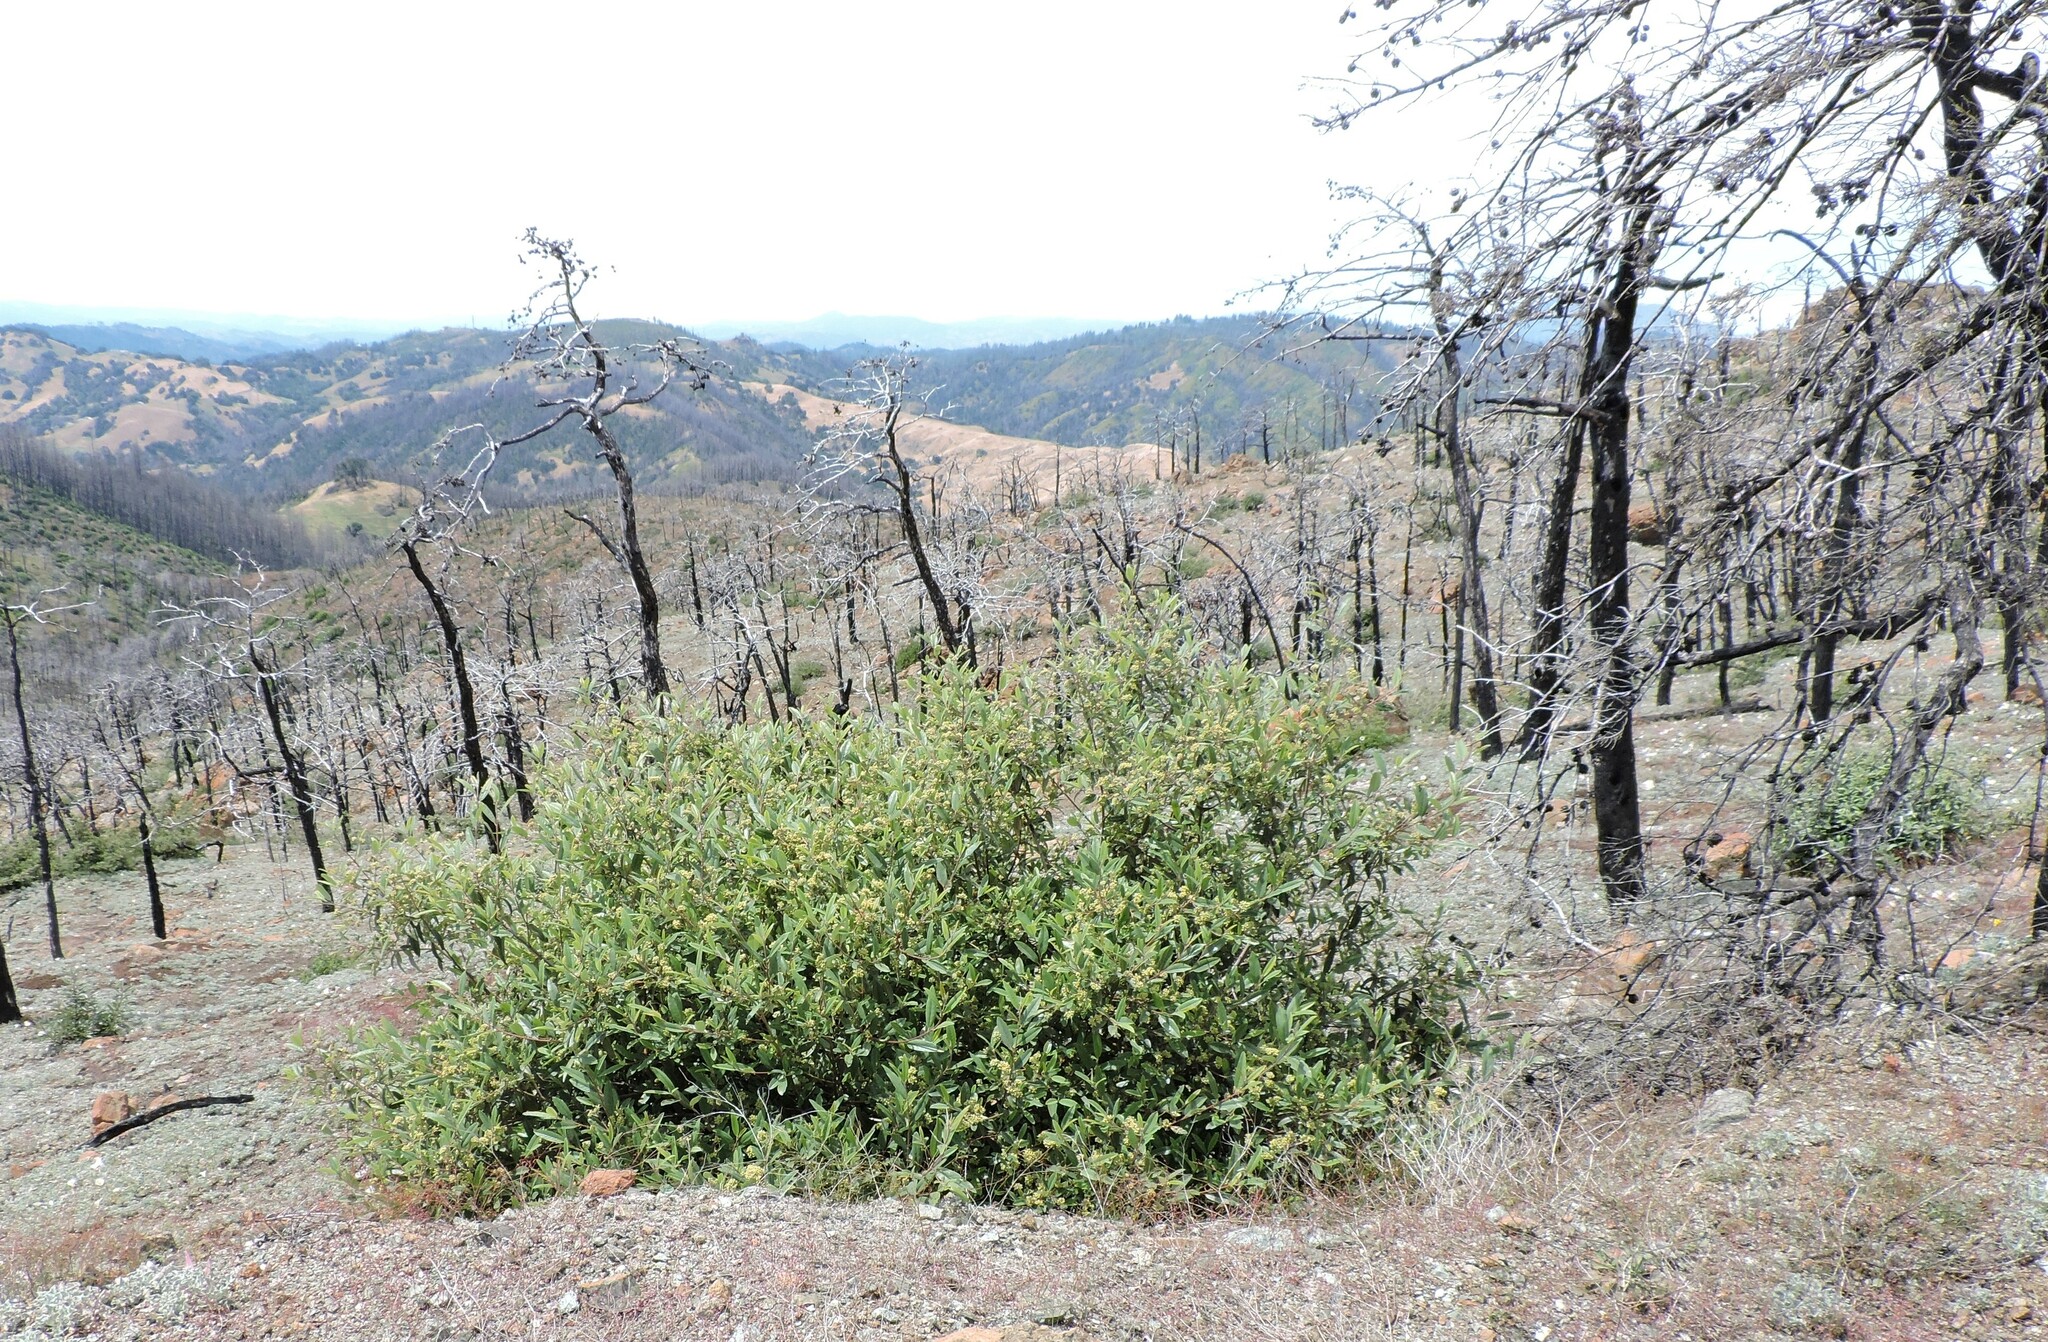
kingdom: Plantae
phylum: Tracheophyta
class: Magnoliopsida
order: Rosales
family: Rhamnaceae
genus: Frangula
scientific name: Frangula californica
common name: California buckthorn
